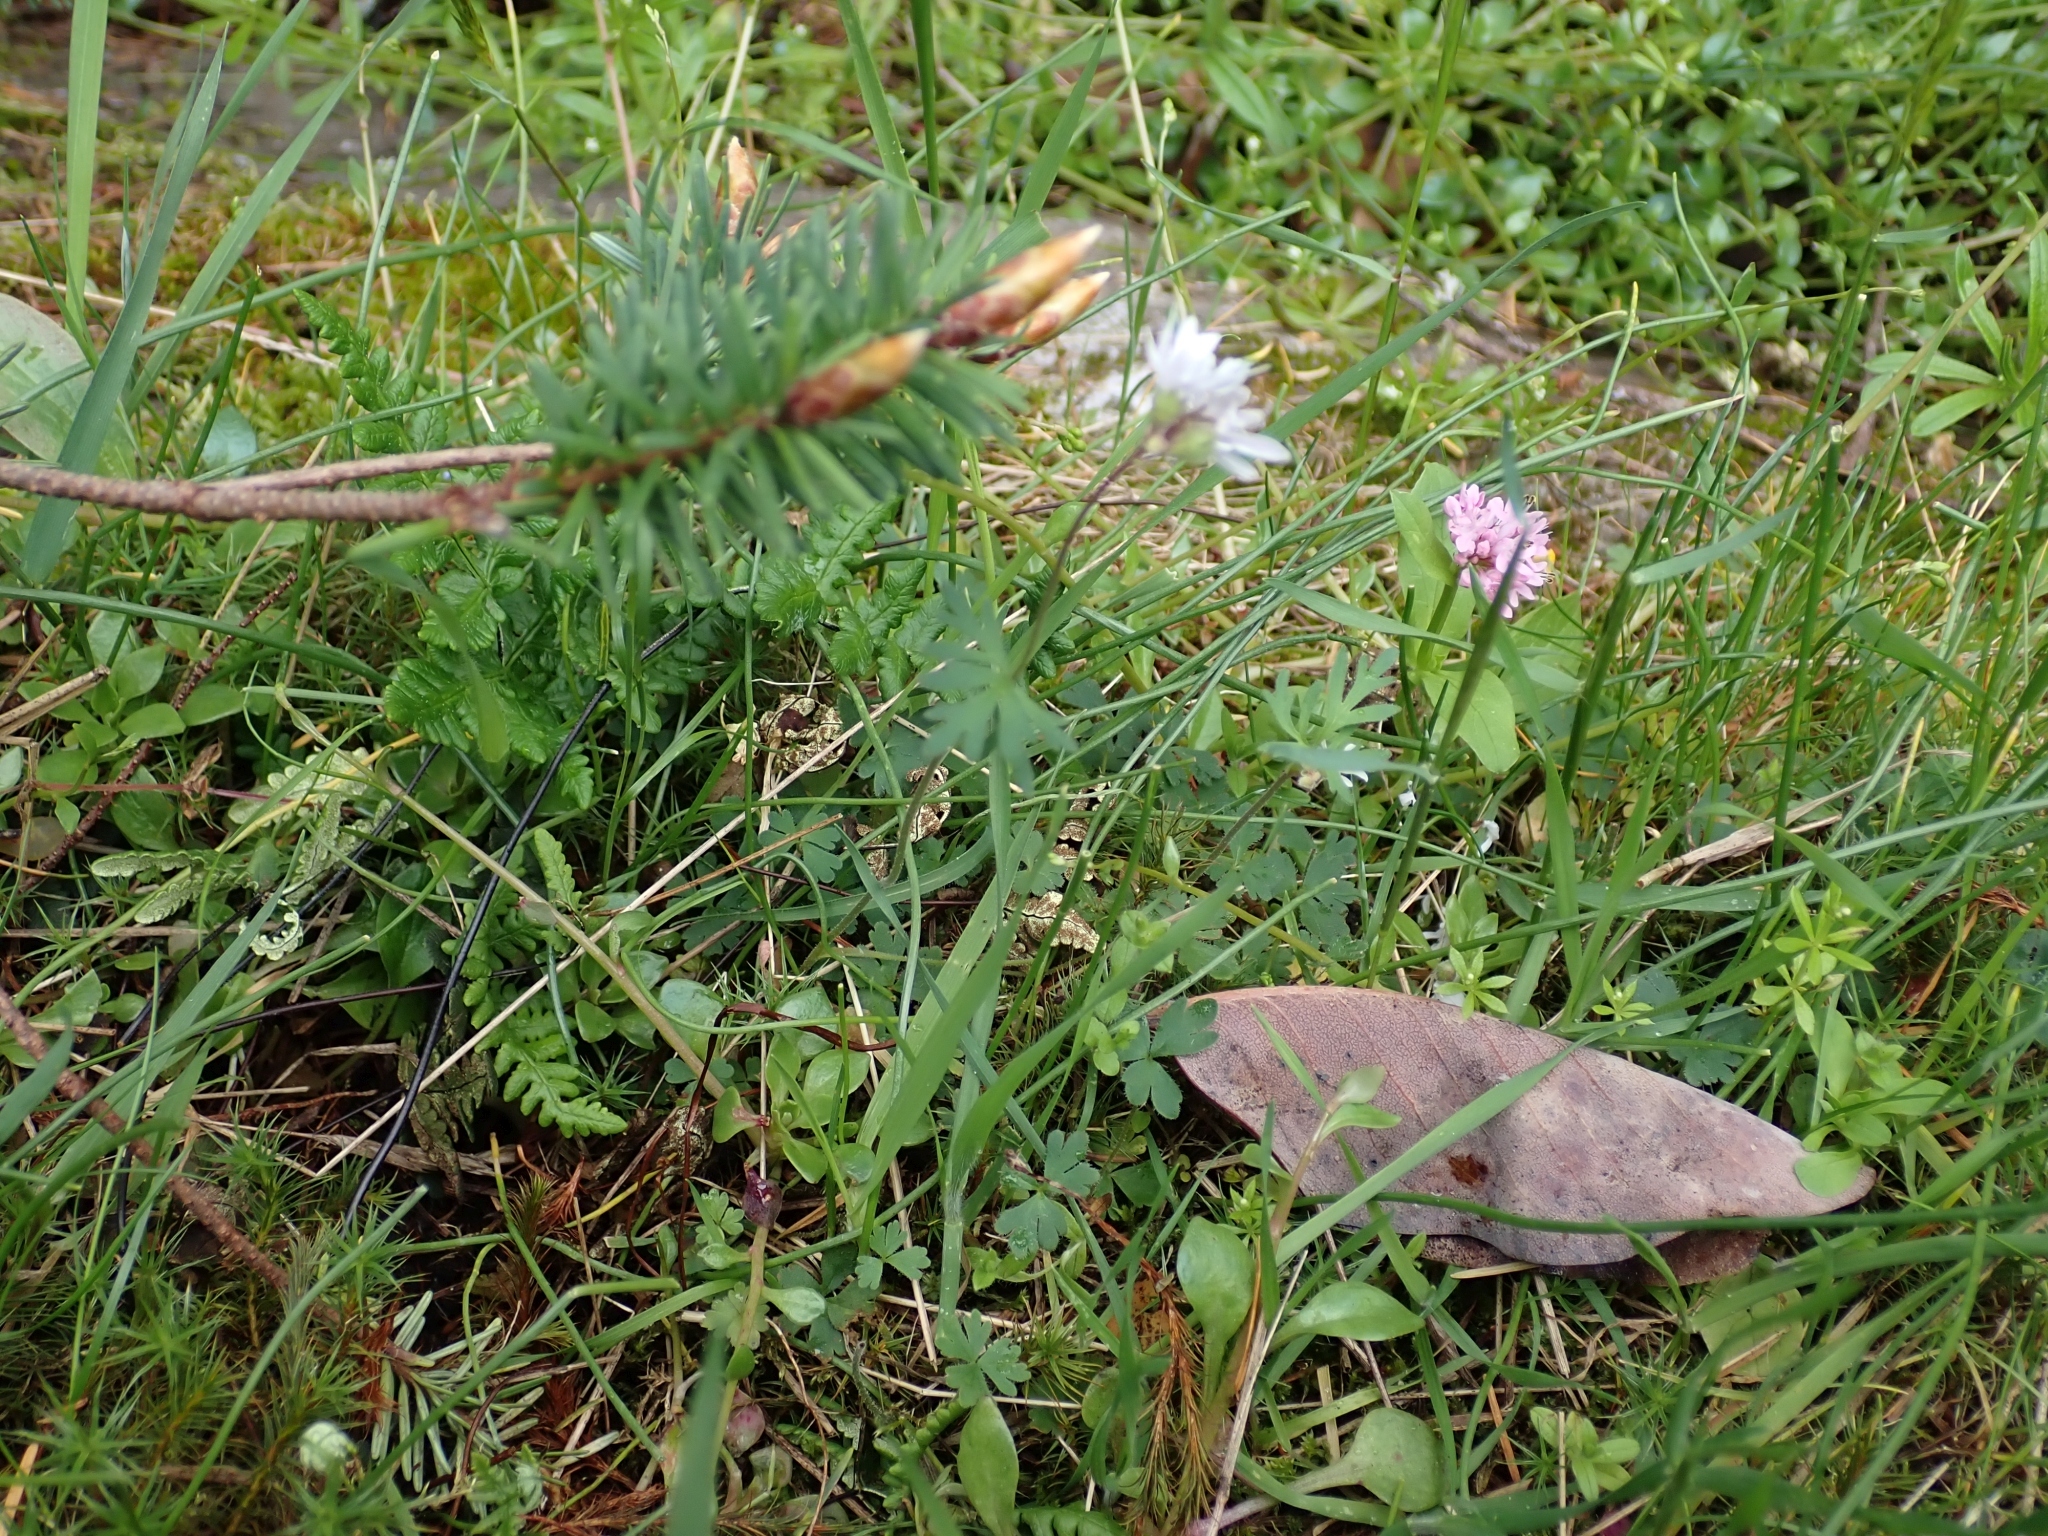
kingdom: Plantae
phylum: Tracheophyta
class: Magnoliopsida
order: Saxifragales
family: Saxifragaceae
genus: Lithophragma
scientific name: Lithophragma parviflorum
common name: Small-flowered fringe-cup
